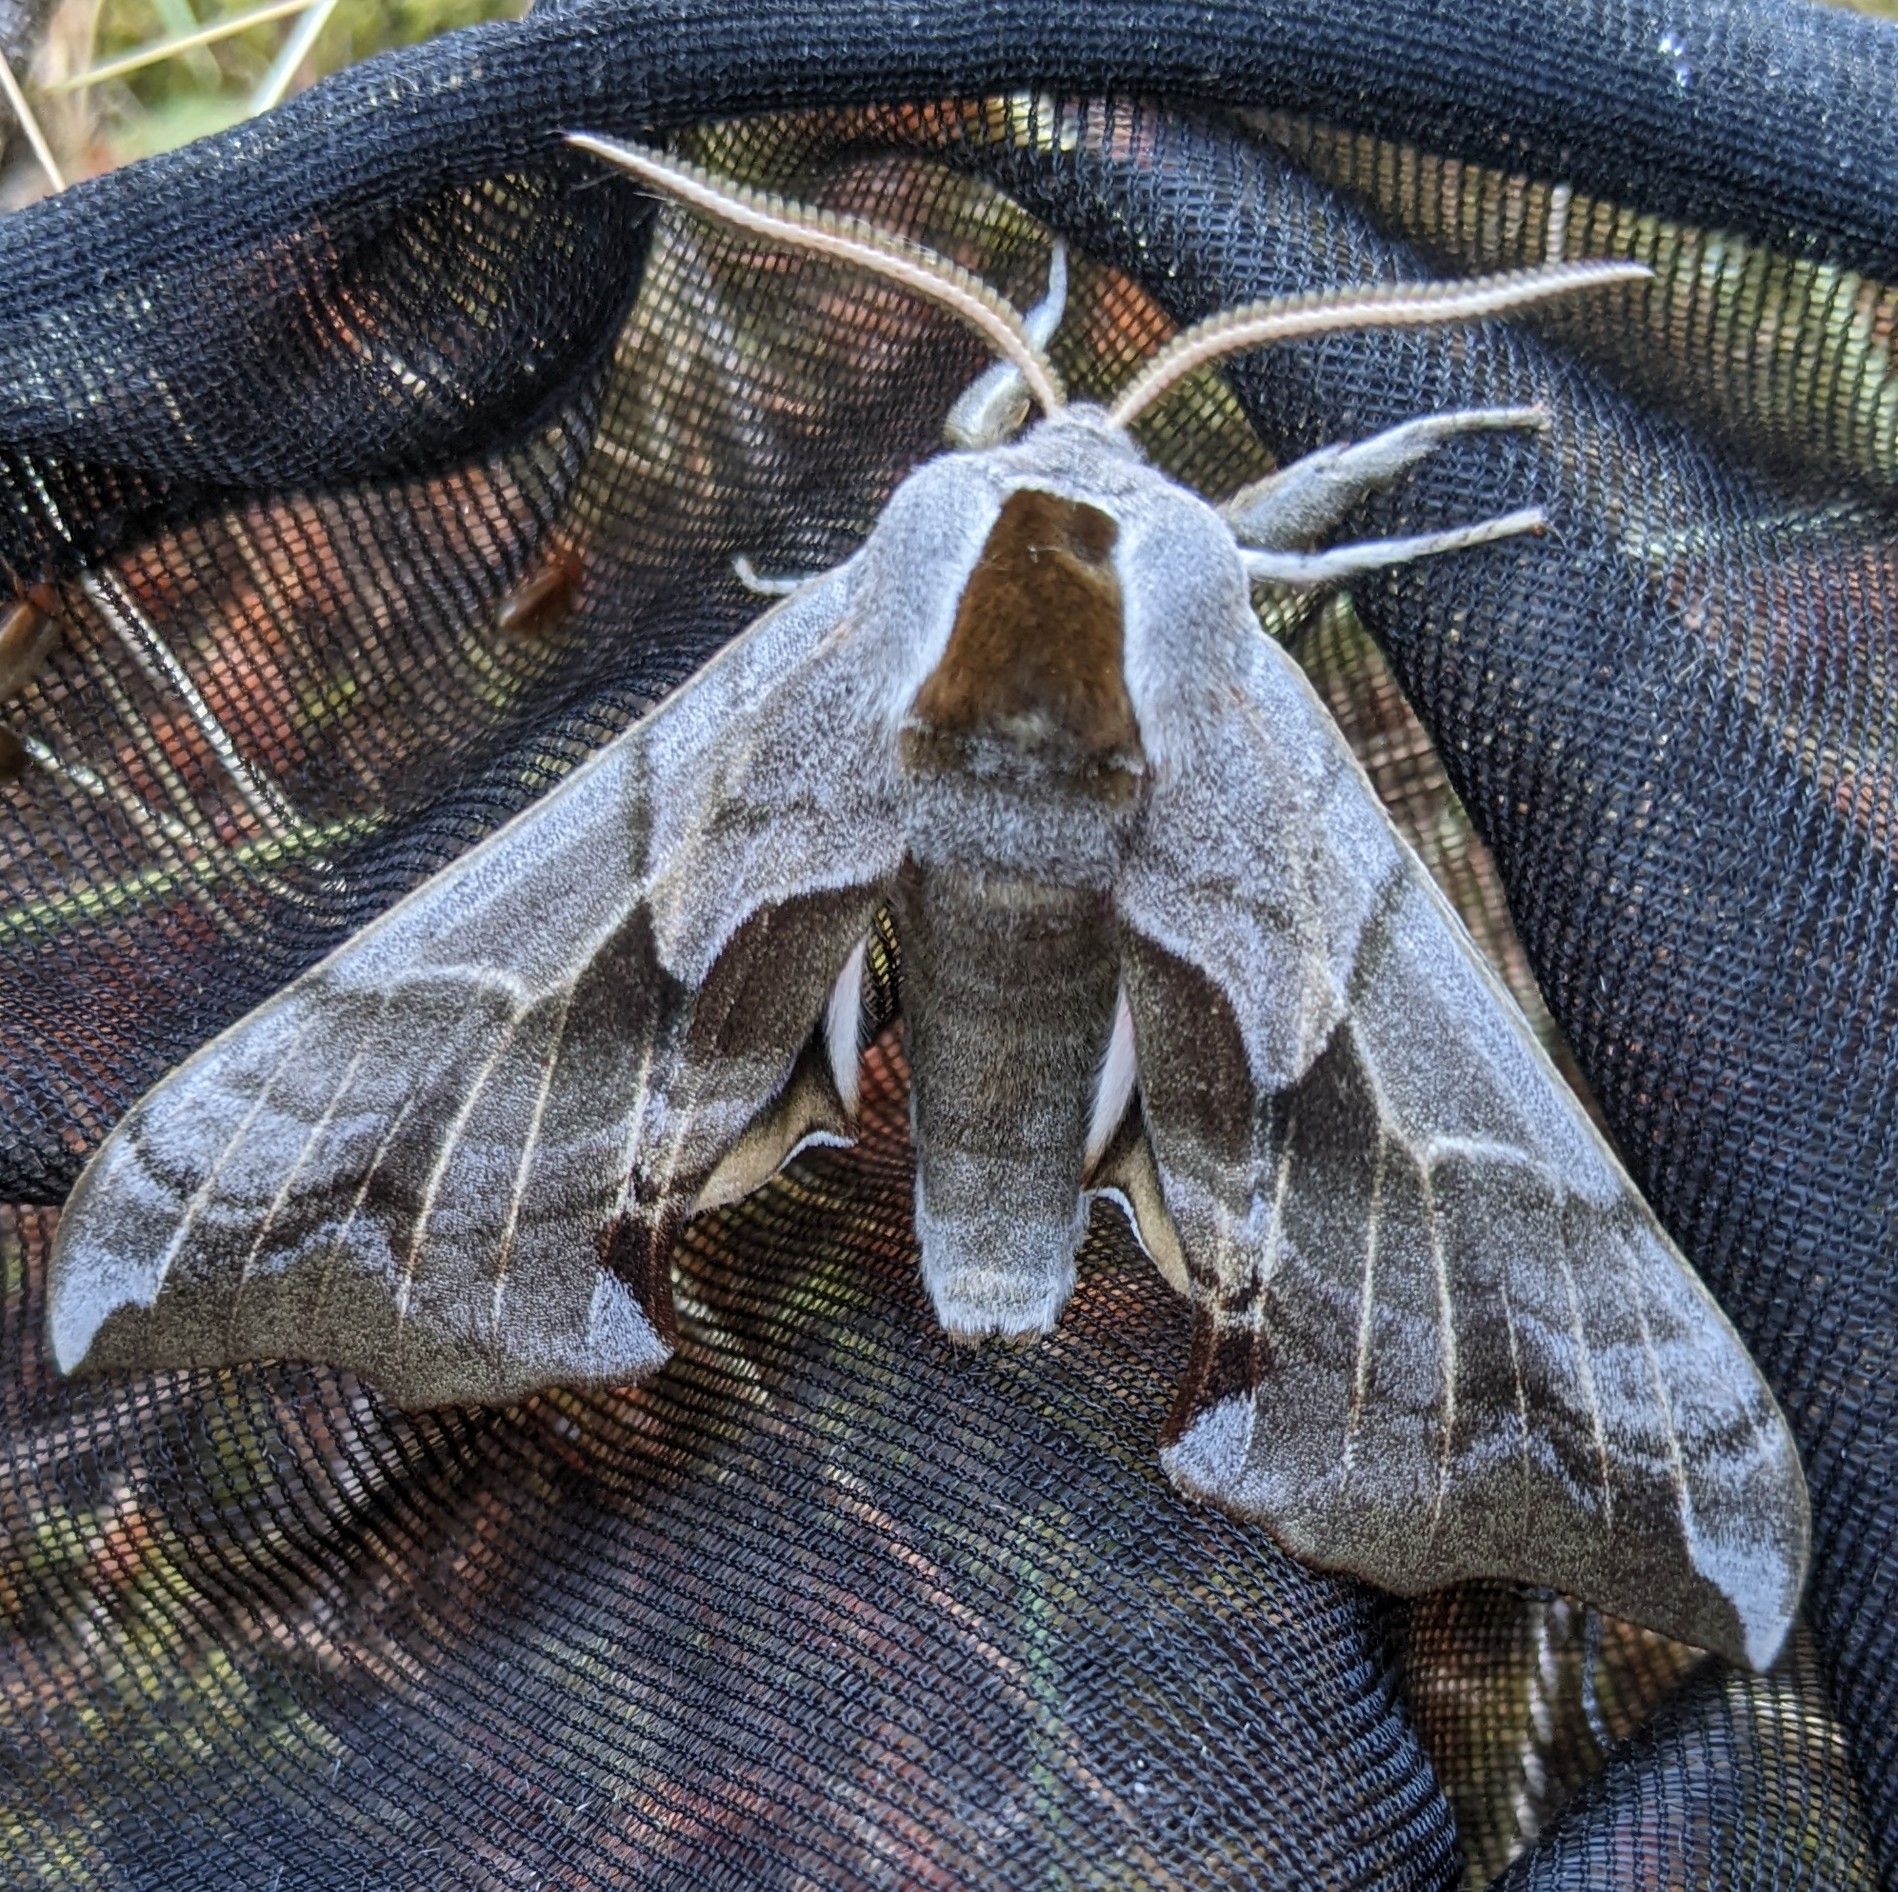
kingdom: Animalia
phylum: Arthropoda
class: Insecta
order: Lepidoptera
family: Sphingidae
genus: Smerinthus
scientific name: Smerinthus cerisyi
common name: Cerisy's sphinx moth
